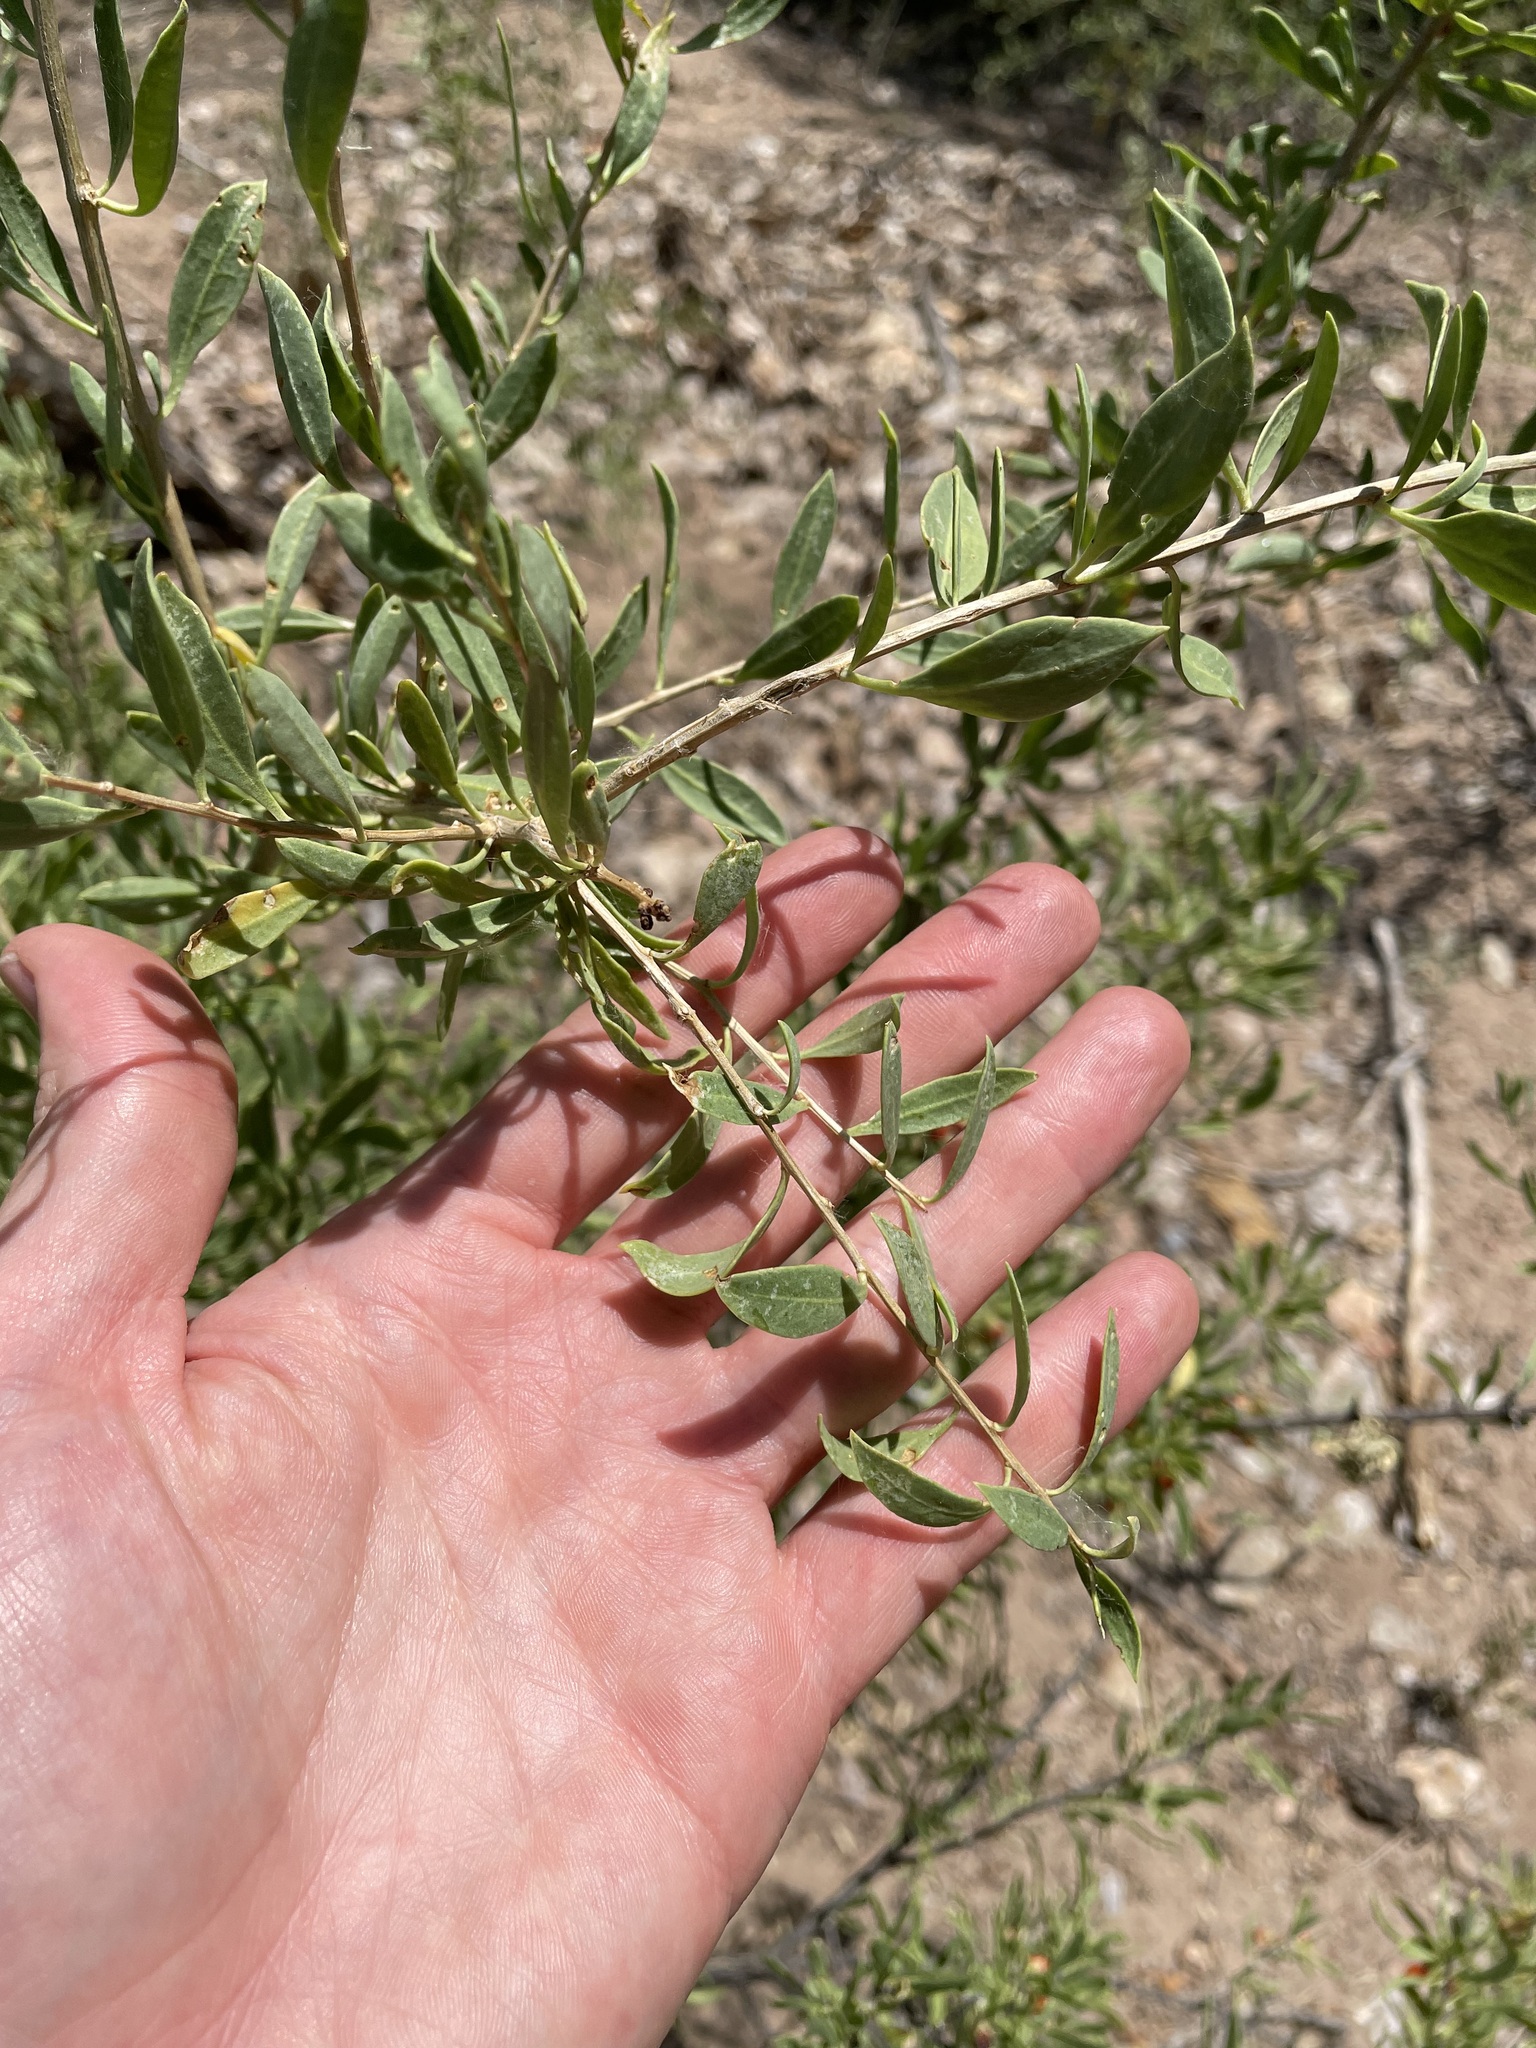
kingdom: Plantae
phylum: Tracheophyta
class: Magnoliopsida
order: Solanales
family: Solanaceae
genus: Lycium
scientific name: Lycium torreyi
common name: Torrey's lycium
